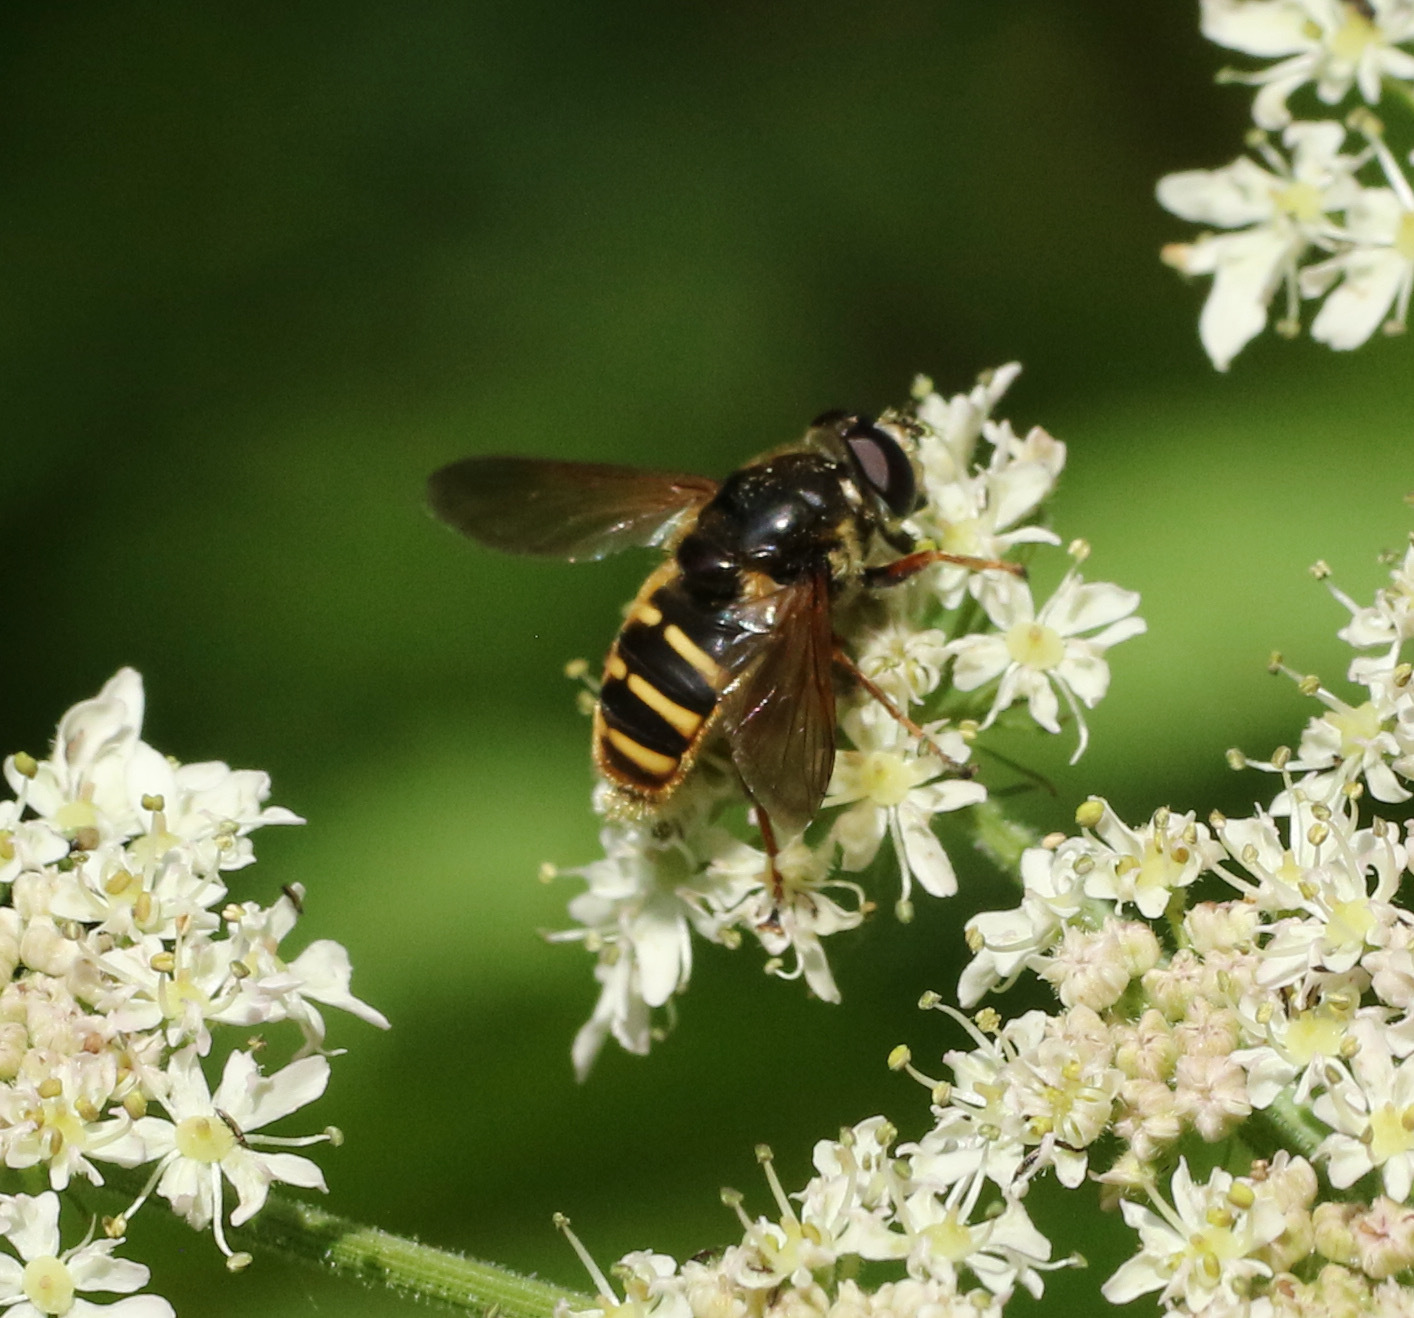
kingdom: Animalia
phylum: Arthropoda
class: Insecta
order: Diptera
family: Syrphidae
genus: Sericomyia
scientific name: Sericomyia silentis
